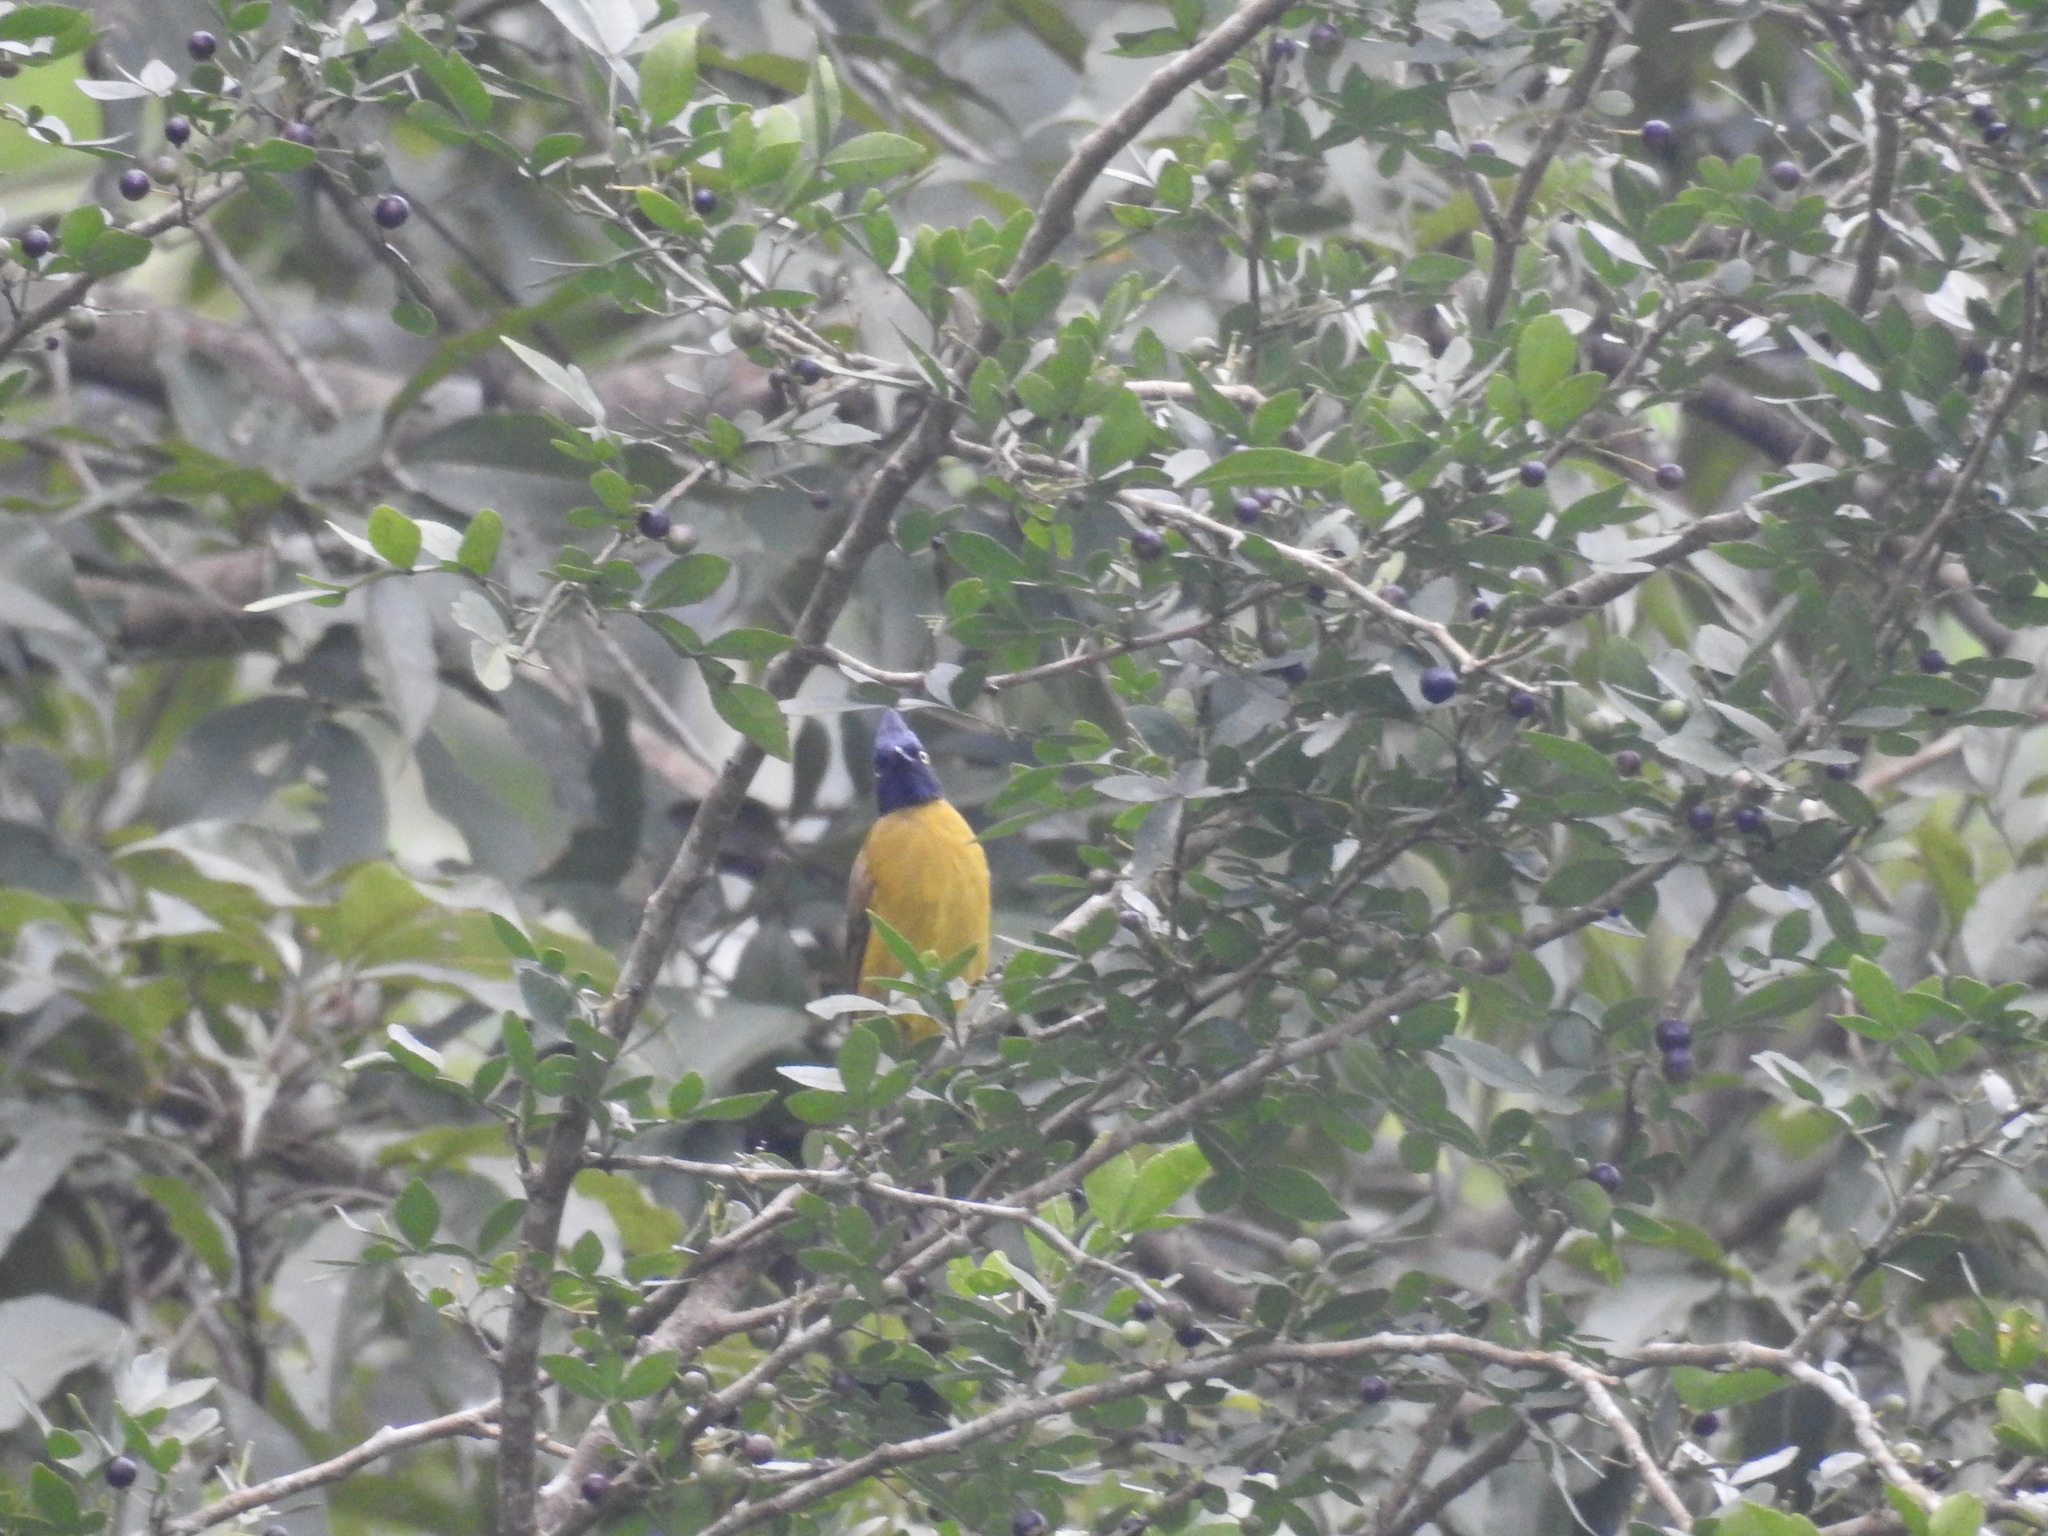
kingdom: Animalia
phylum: Chordata
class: Aves
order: Passeriformes
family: Pycnonotidae
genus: Pycnonotus
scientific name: Pycnonotus flaviventris
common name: Black-crested bulbul
